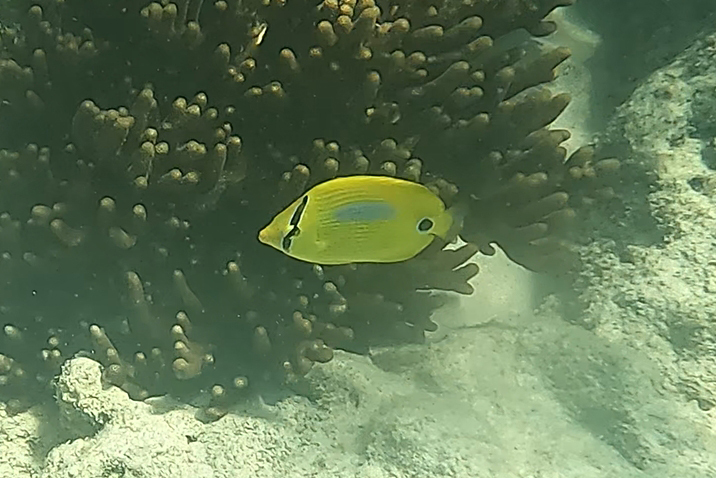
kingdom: Animalia
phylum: Chordata
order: Perciformes
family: Chaetodontidae
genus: Chaetodon
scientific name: Chaetodon plebeius
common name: Bluespot butterflyfish
